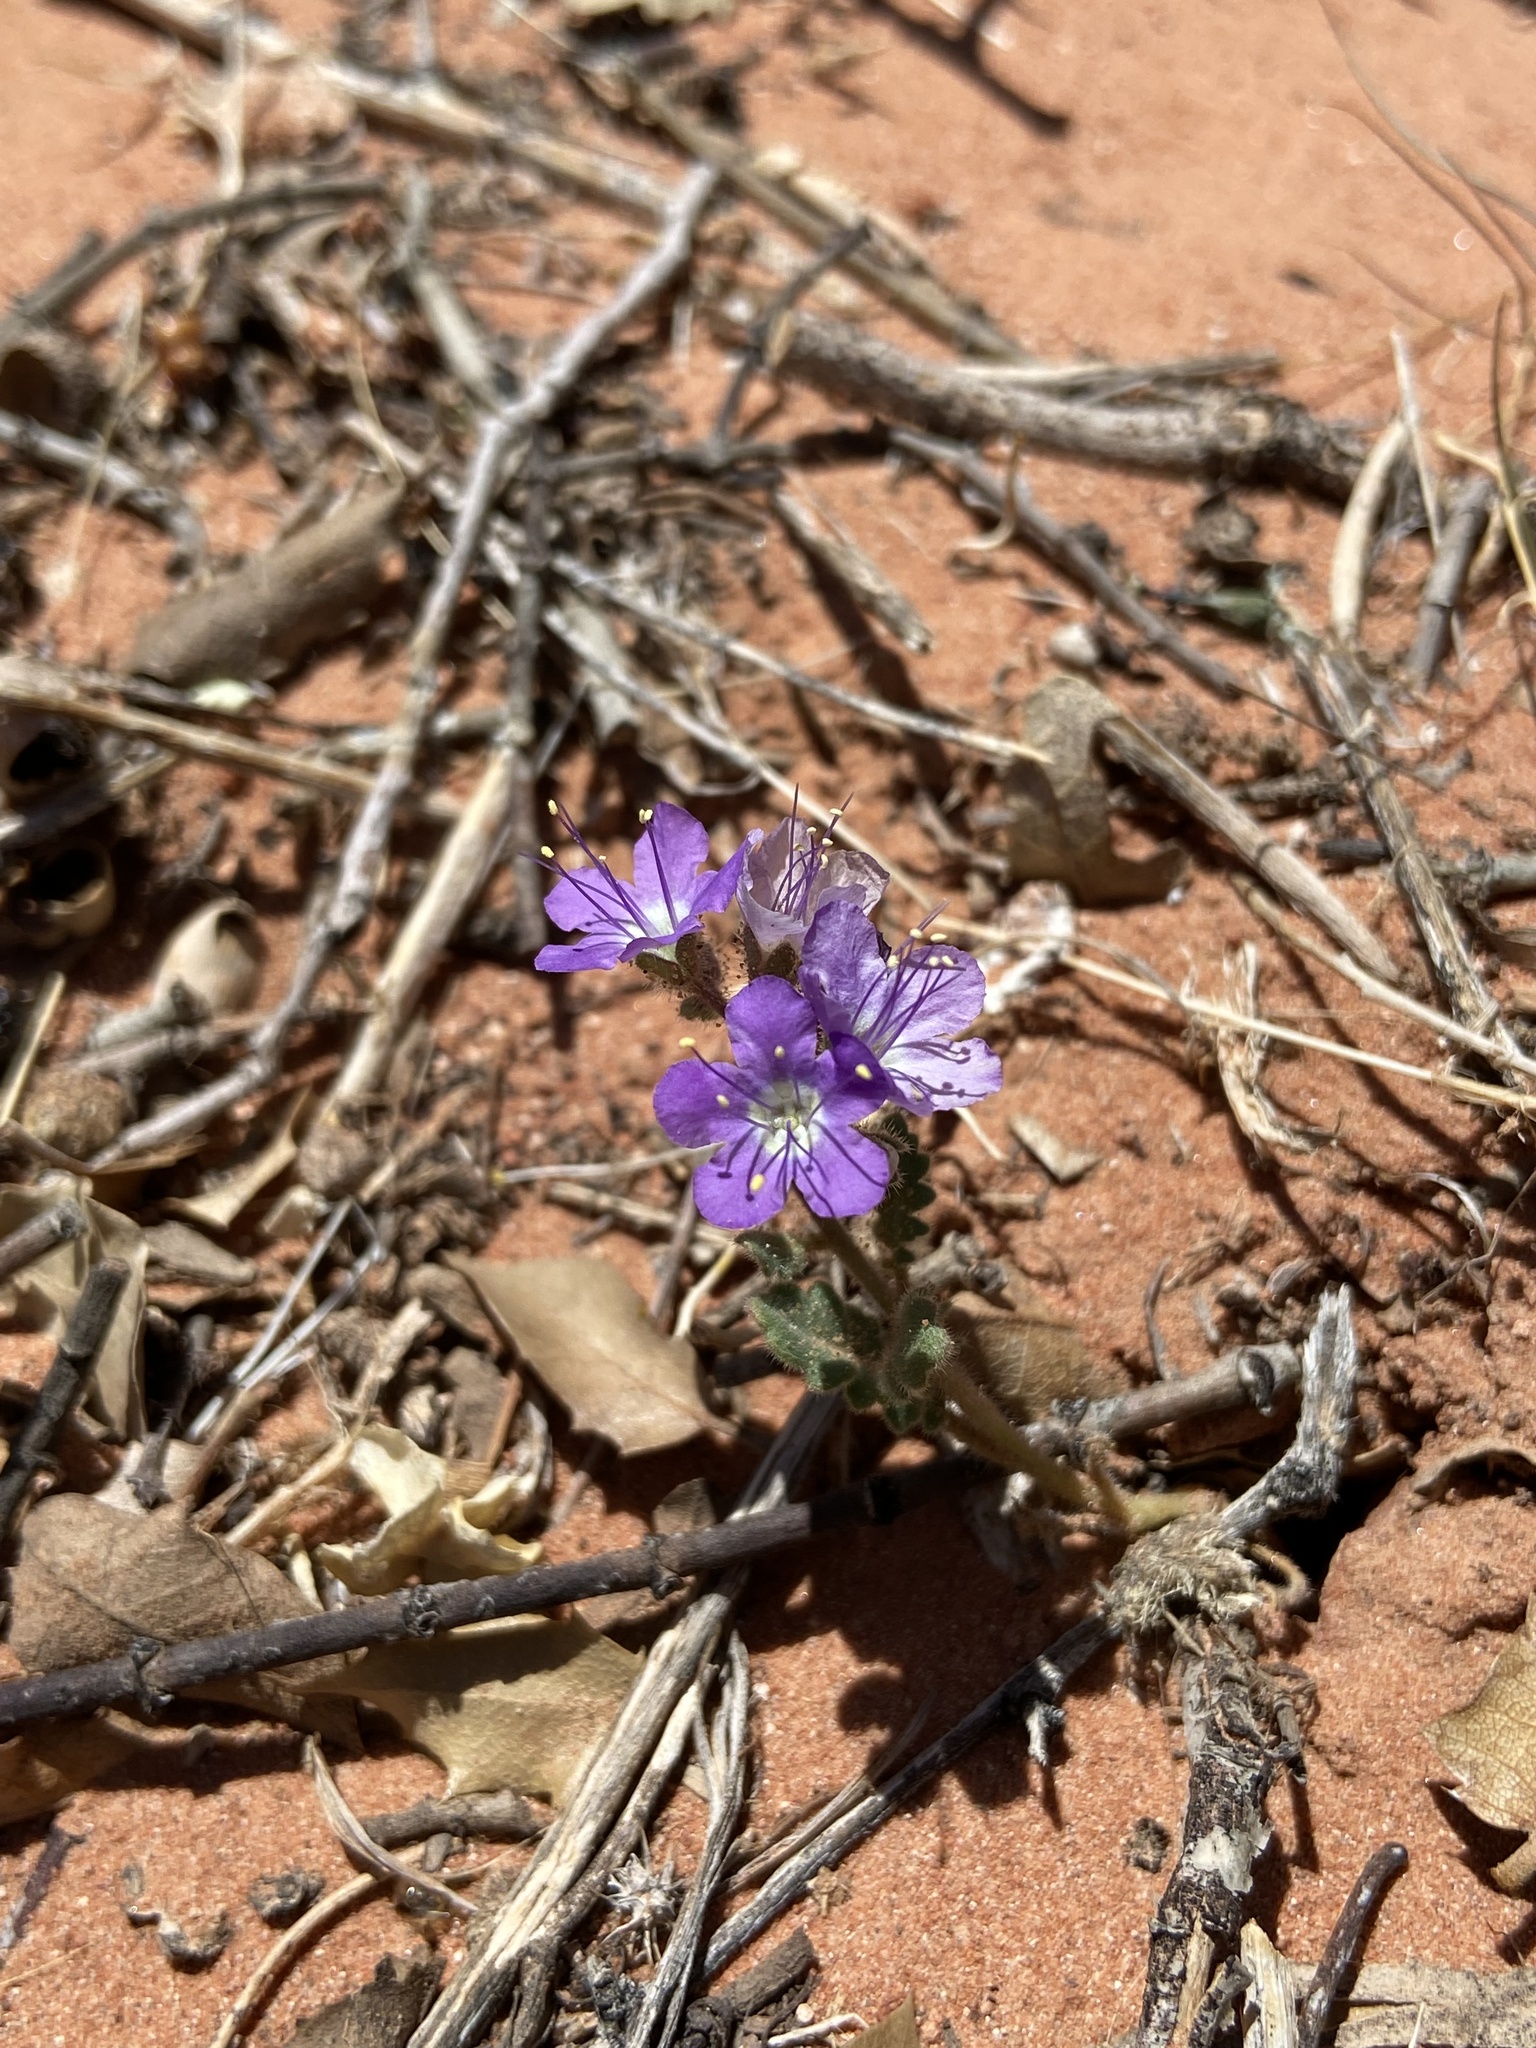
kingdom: Plantae
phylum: Tracheophyta
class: Magnoliopsida
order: Boraginales
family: Hydrophyllaceae
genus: Phacelia
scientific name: Phacelia crenulata
